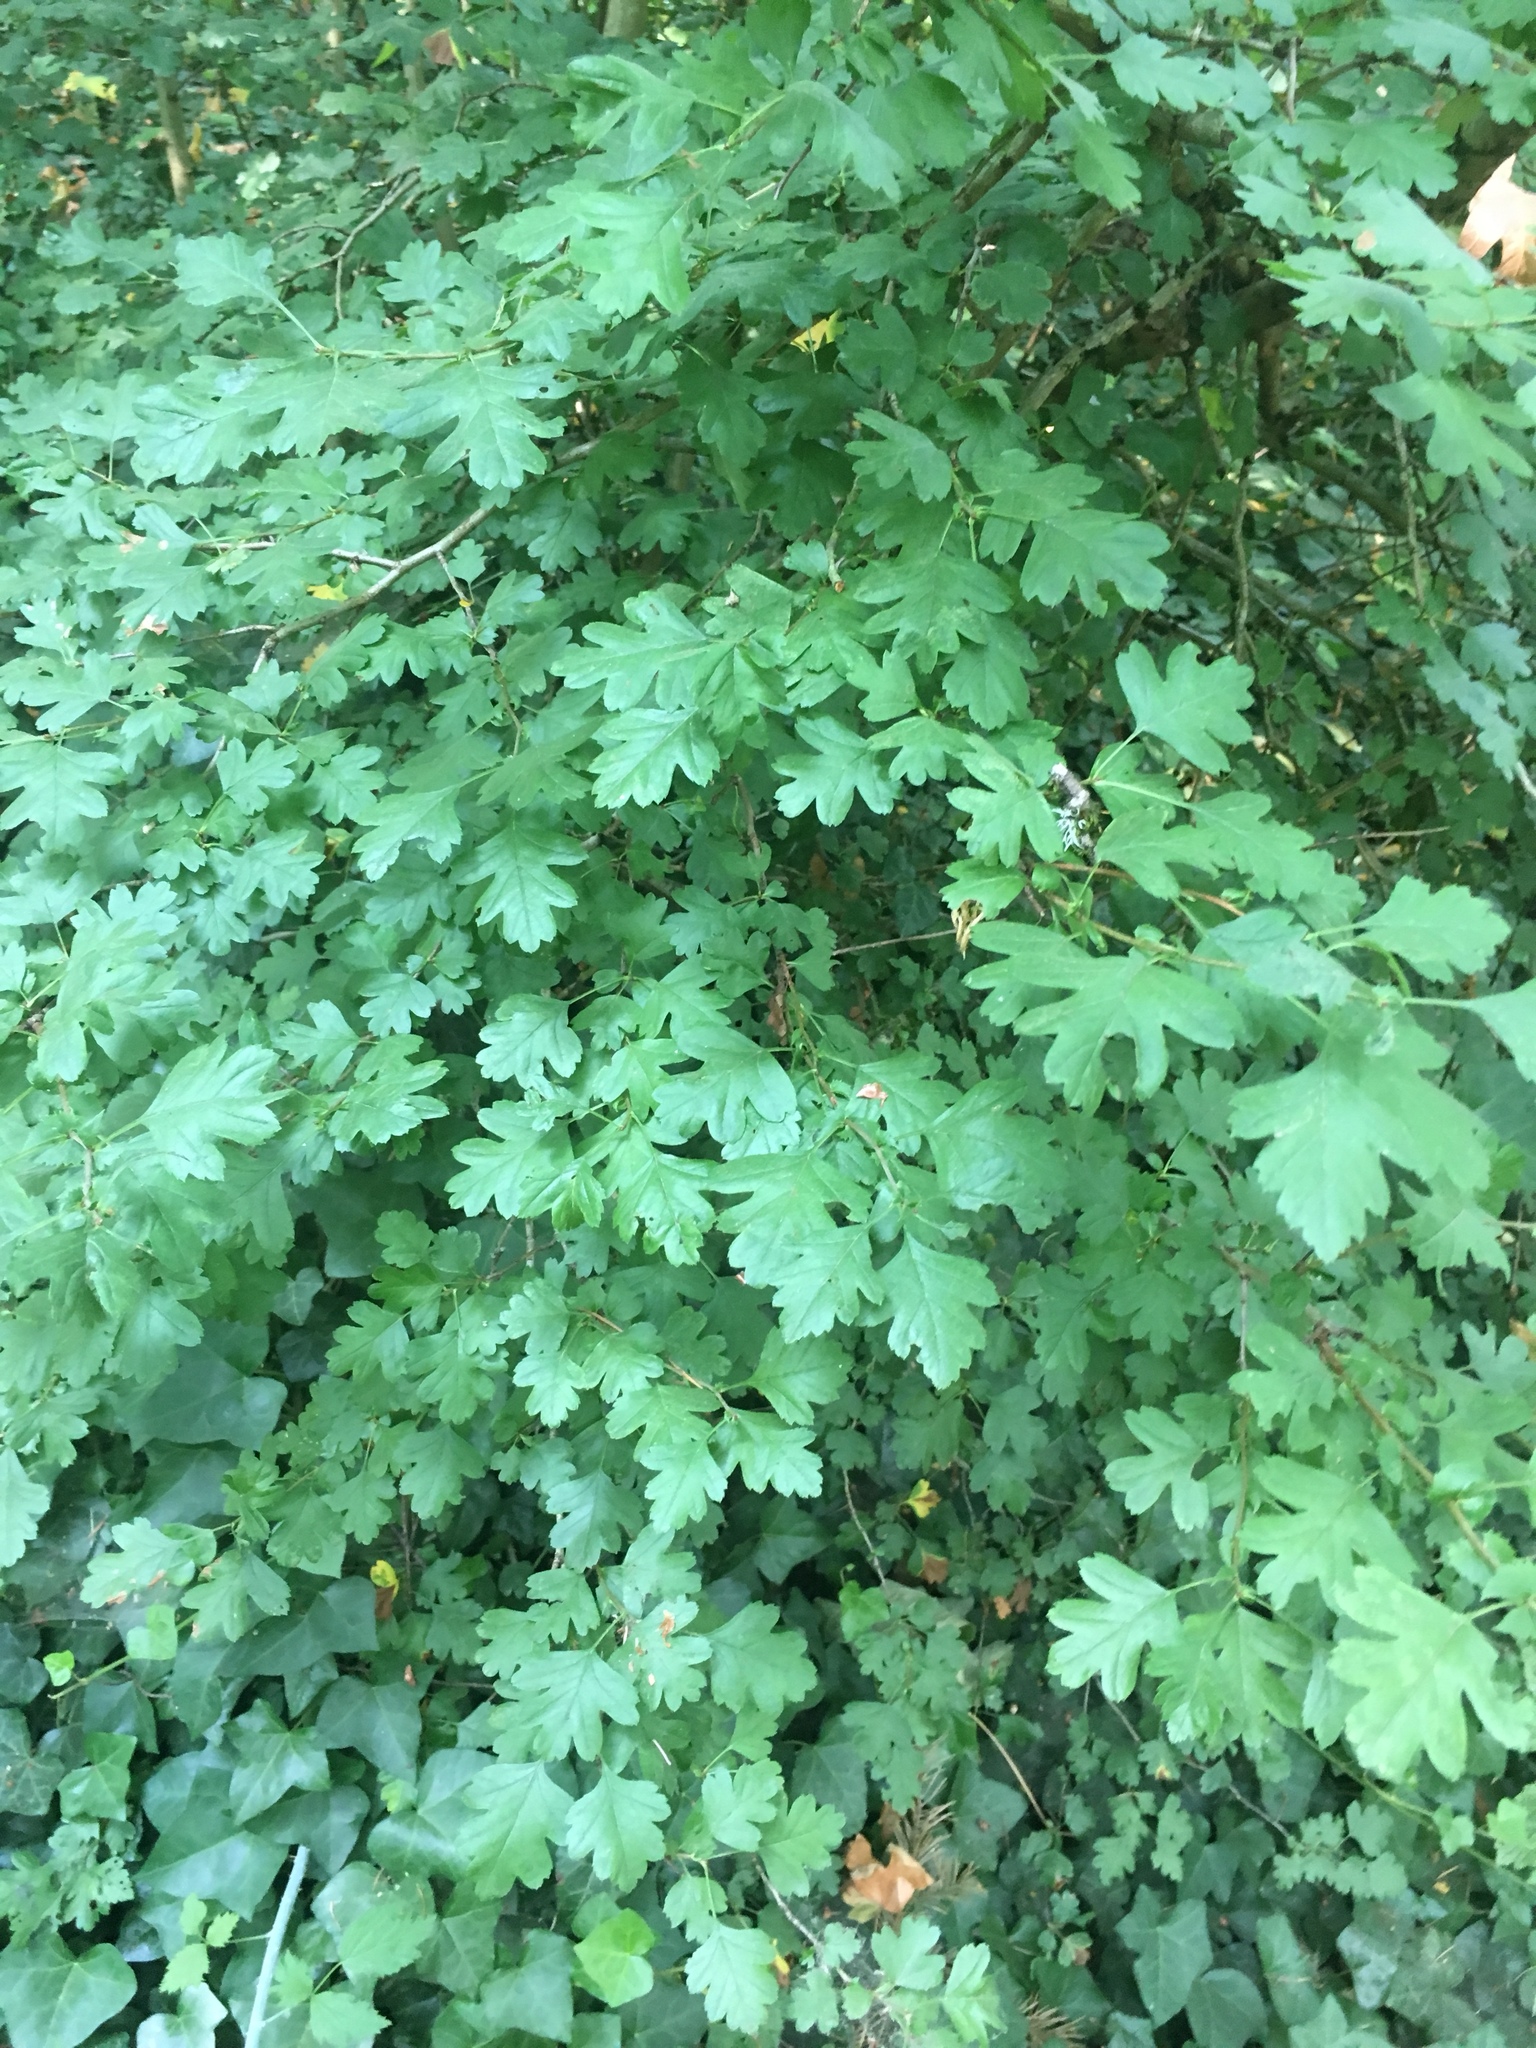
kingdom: Plantae
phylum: Tracheophyta
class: Magnoliopsida
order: Rosales
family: Rosaceae
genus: Crataegus
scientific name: Crataegus monogyna
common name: Hawthorn
